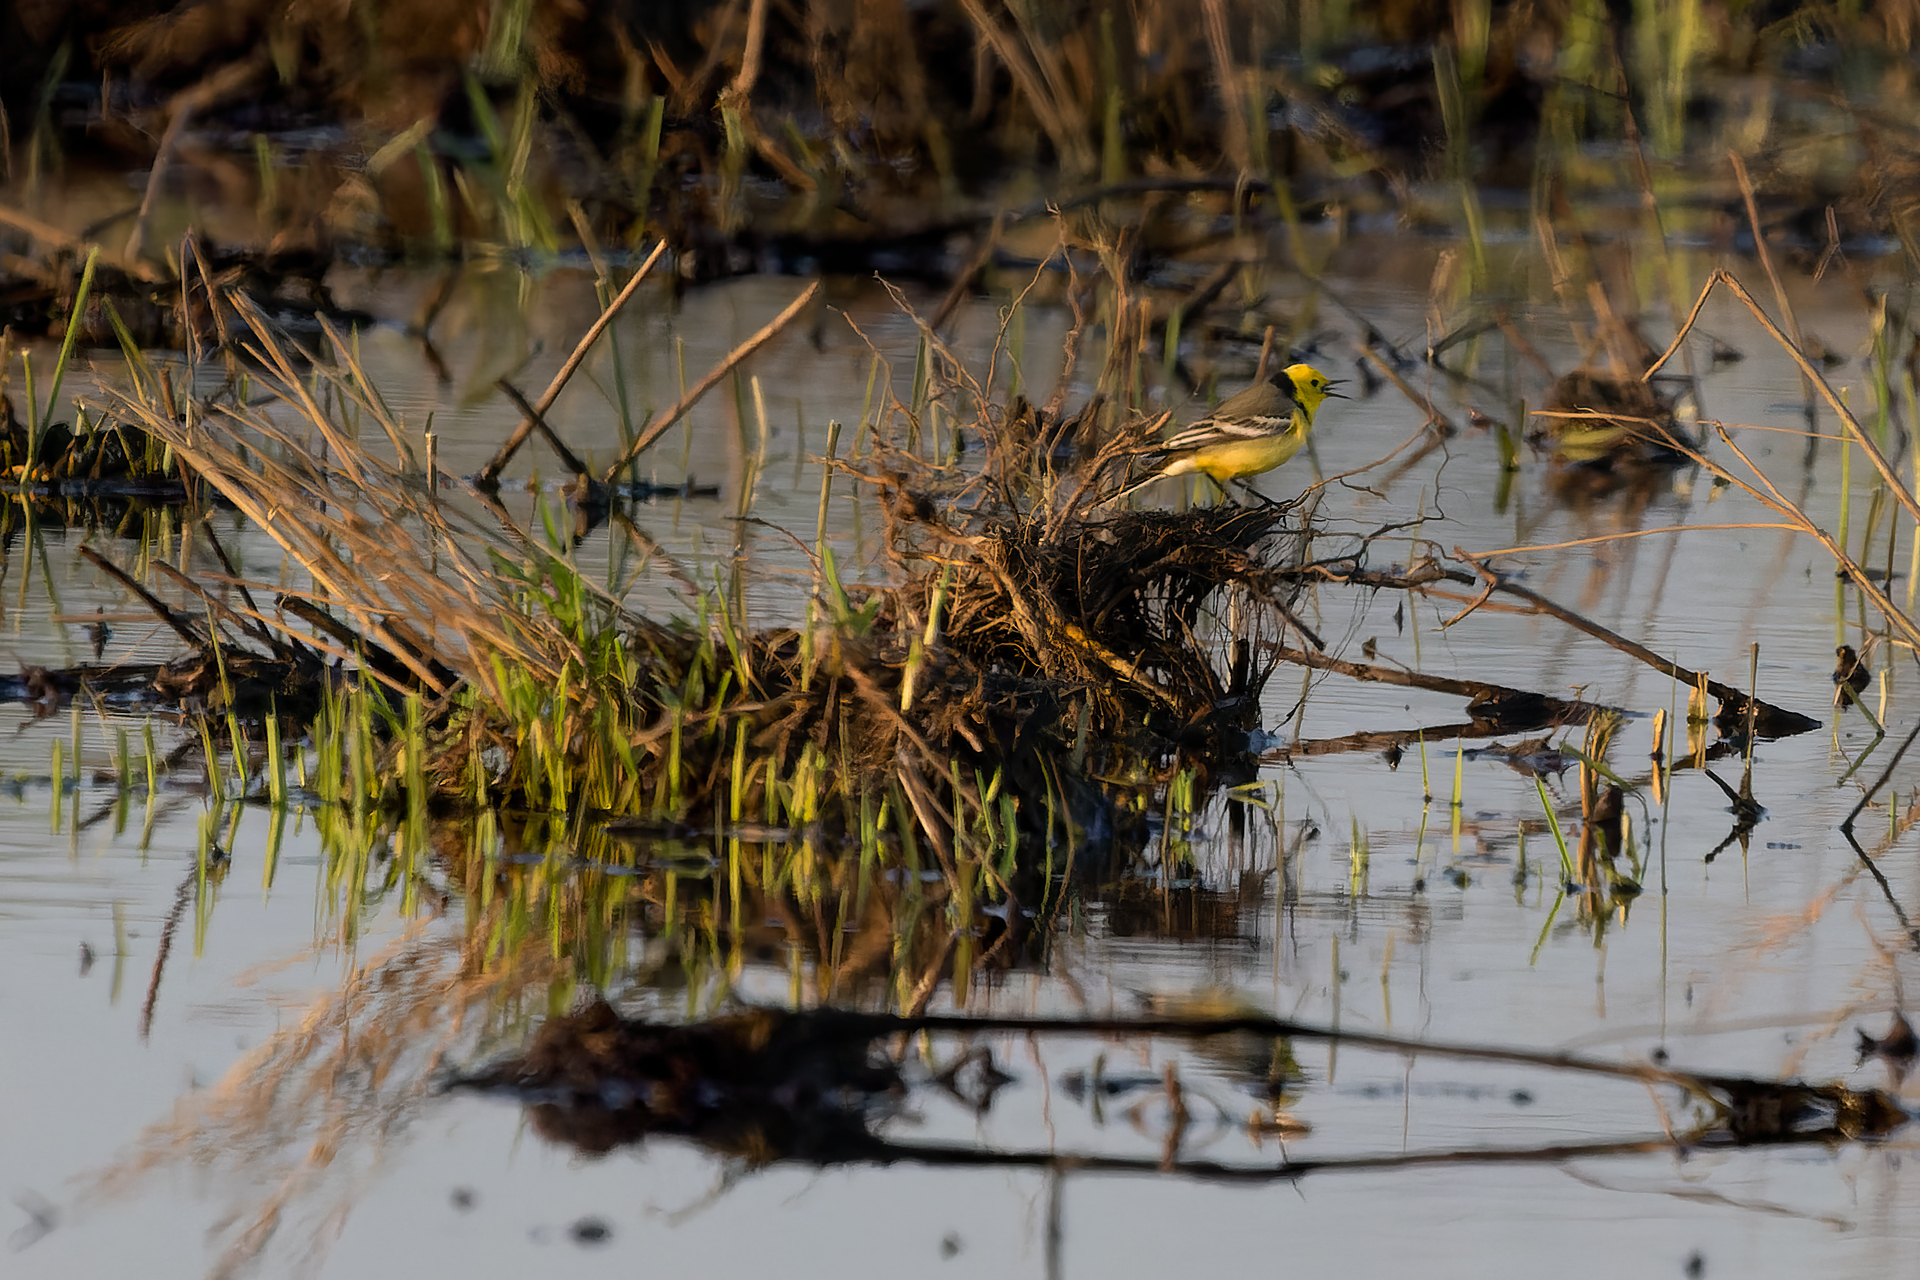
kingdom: Animalia
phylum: Chordata
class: Aves
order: Passeriformes
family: Motacillidae
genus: Motacilla
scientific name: Motacilla citreola
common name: Citrine wagtail
